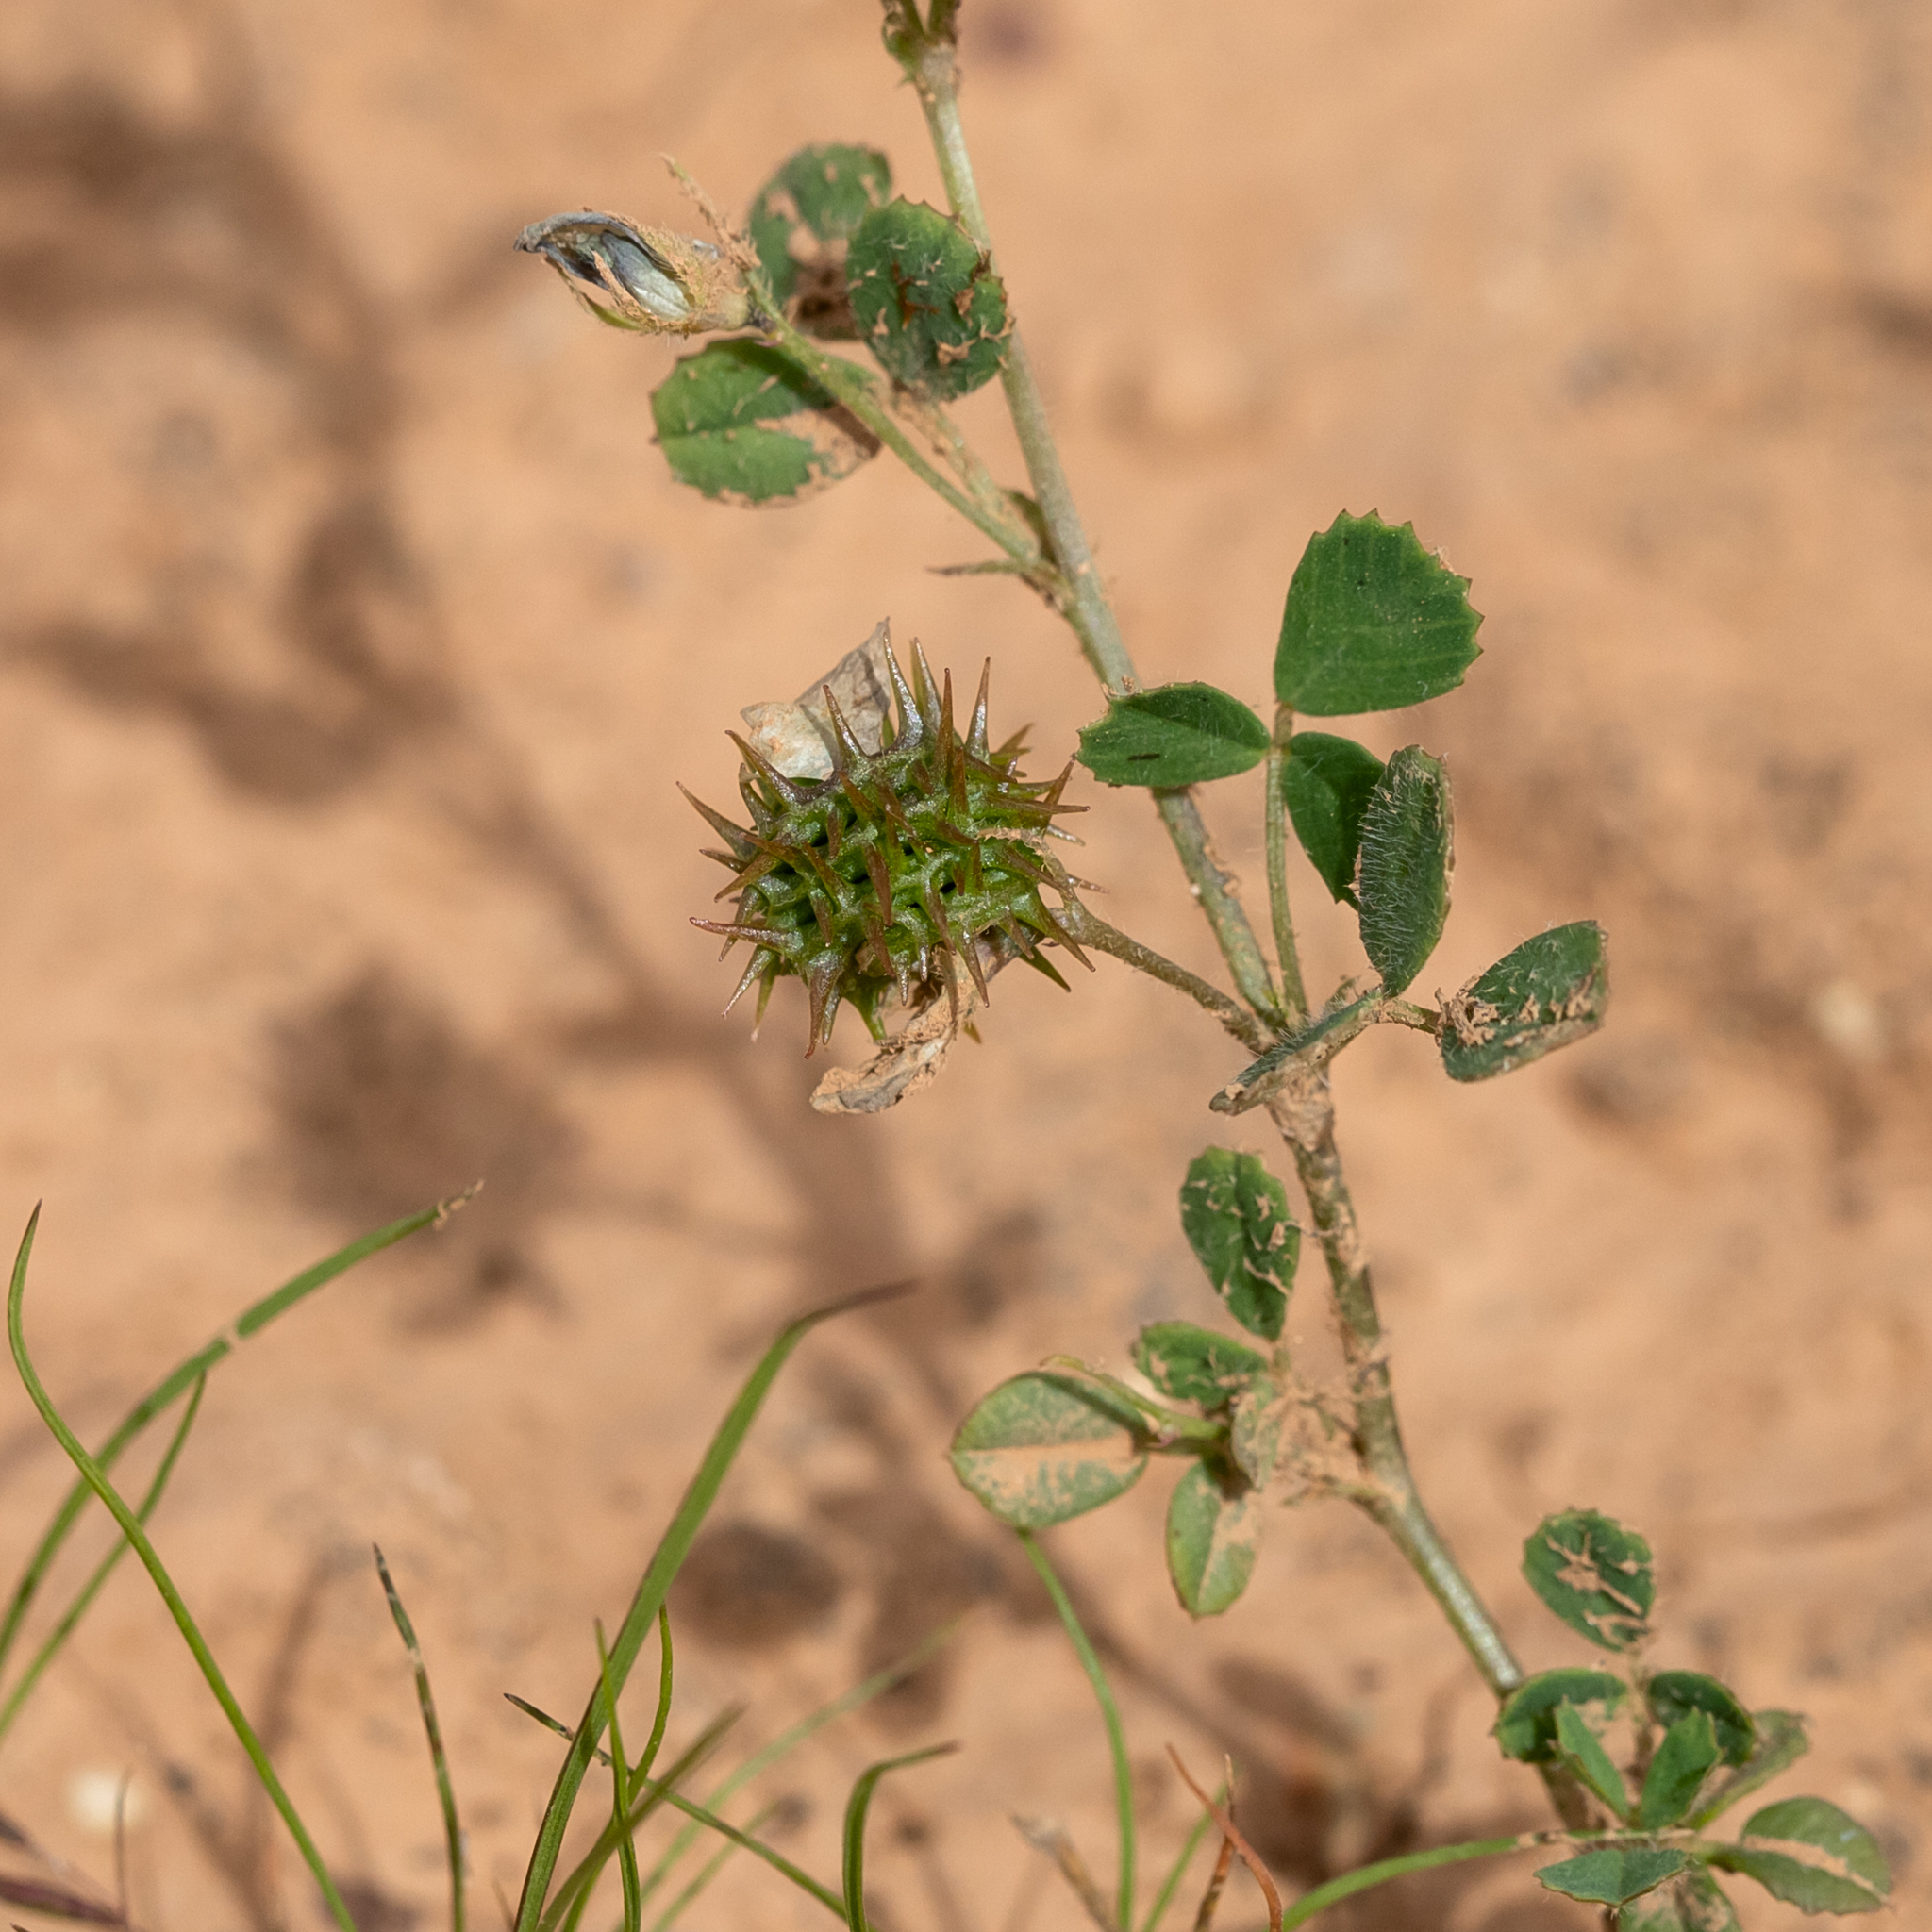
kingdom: Plantae
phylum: Tracheophyta
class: Magnoliopsida
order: Fabales
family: Fabaceae
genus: Medicago
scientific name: Medicago truncatula
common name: Strong-spined medick
